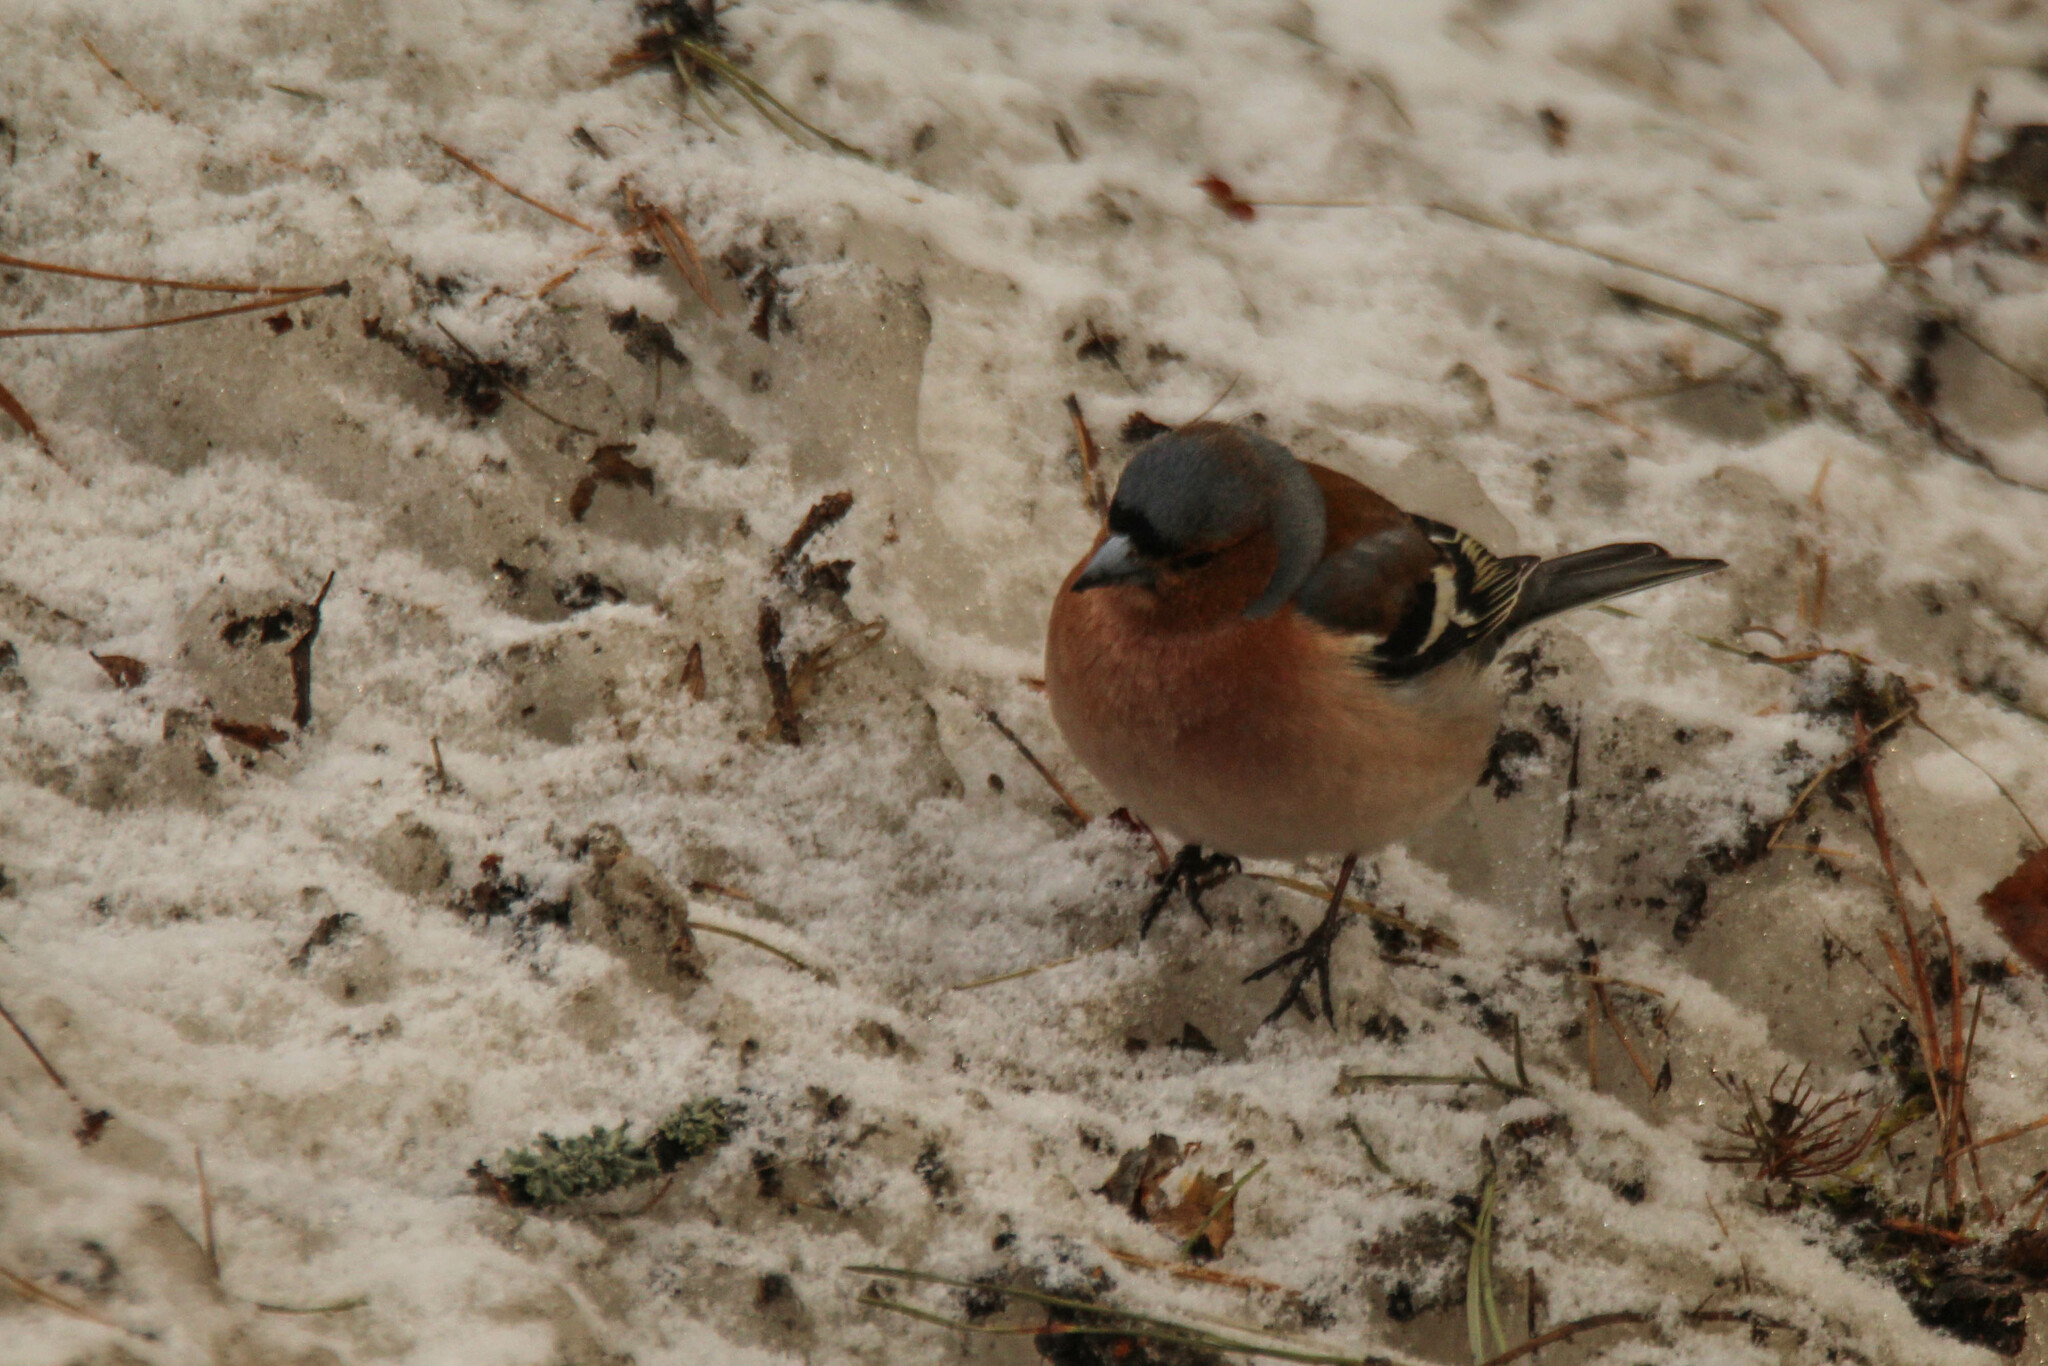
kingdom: Animalia
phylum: Chordata
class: Aves
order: Passeriformes
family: Fringillidae
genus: Fringilla
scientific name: Fringilla coelebs
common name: Common chaffinch
